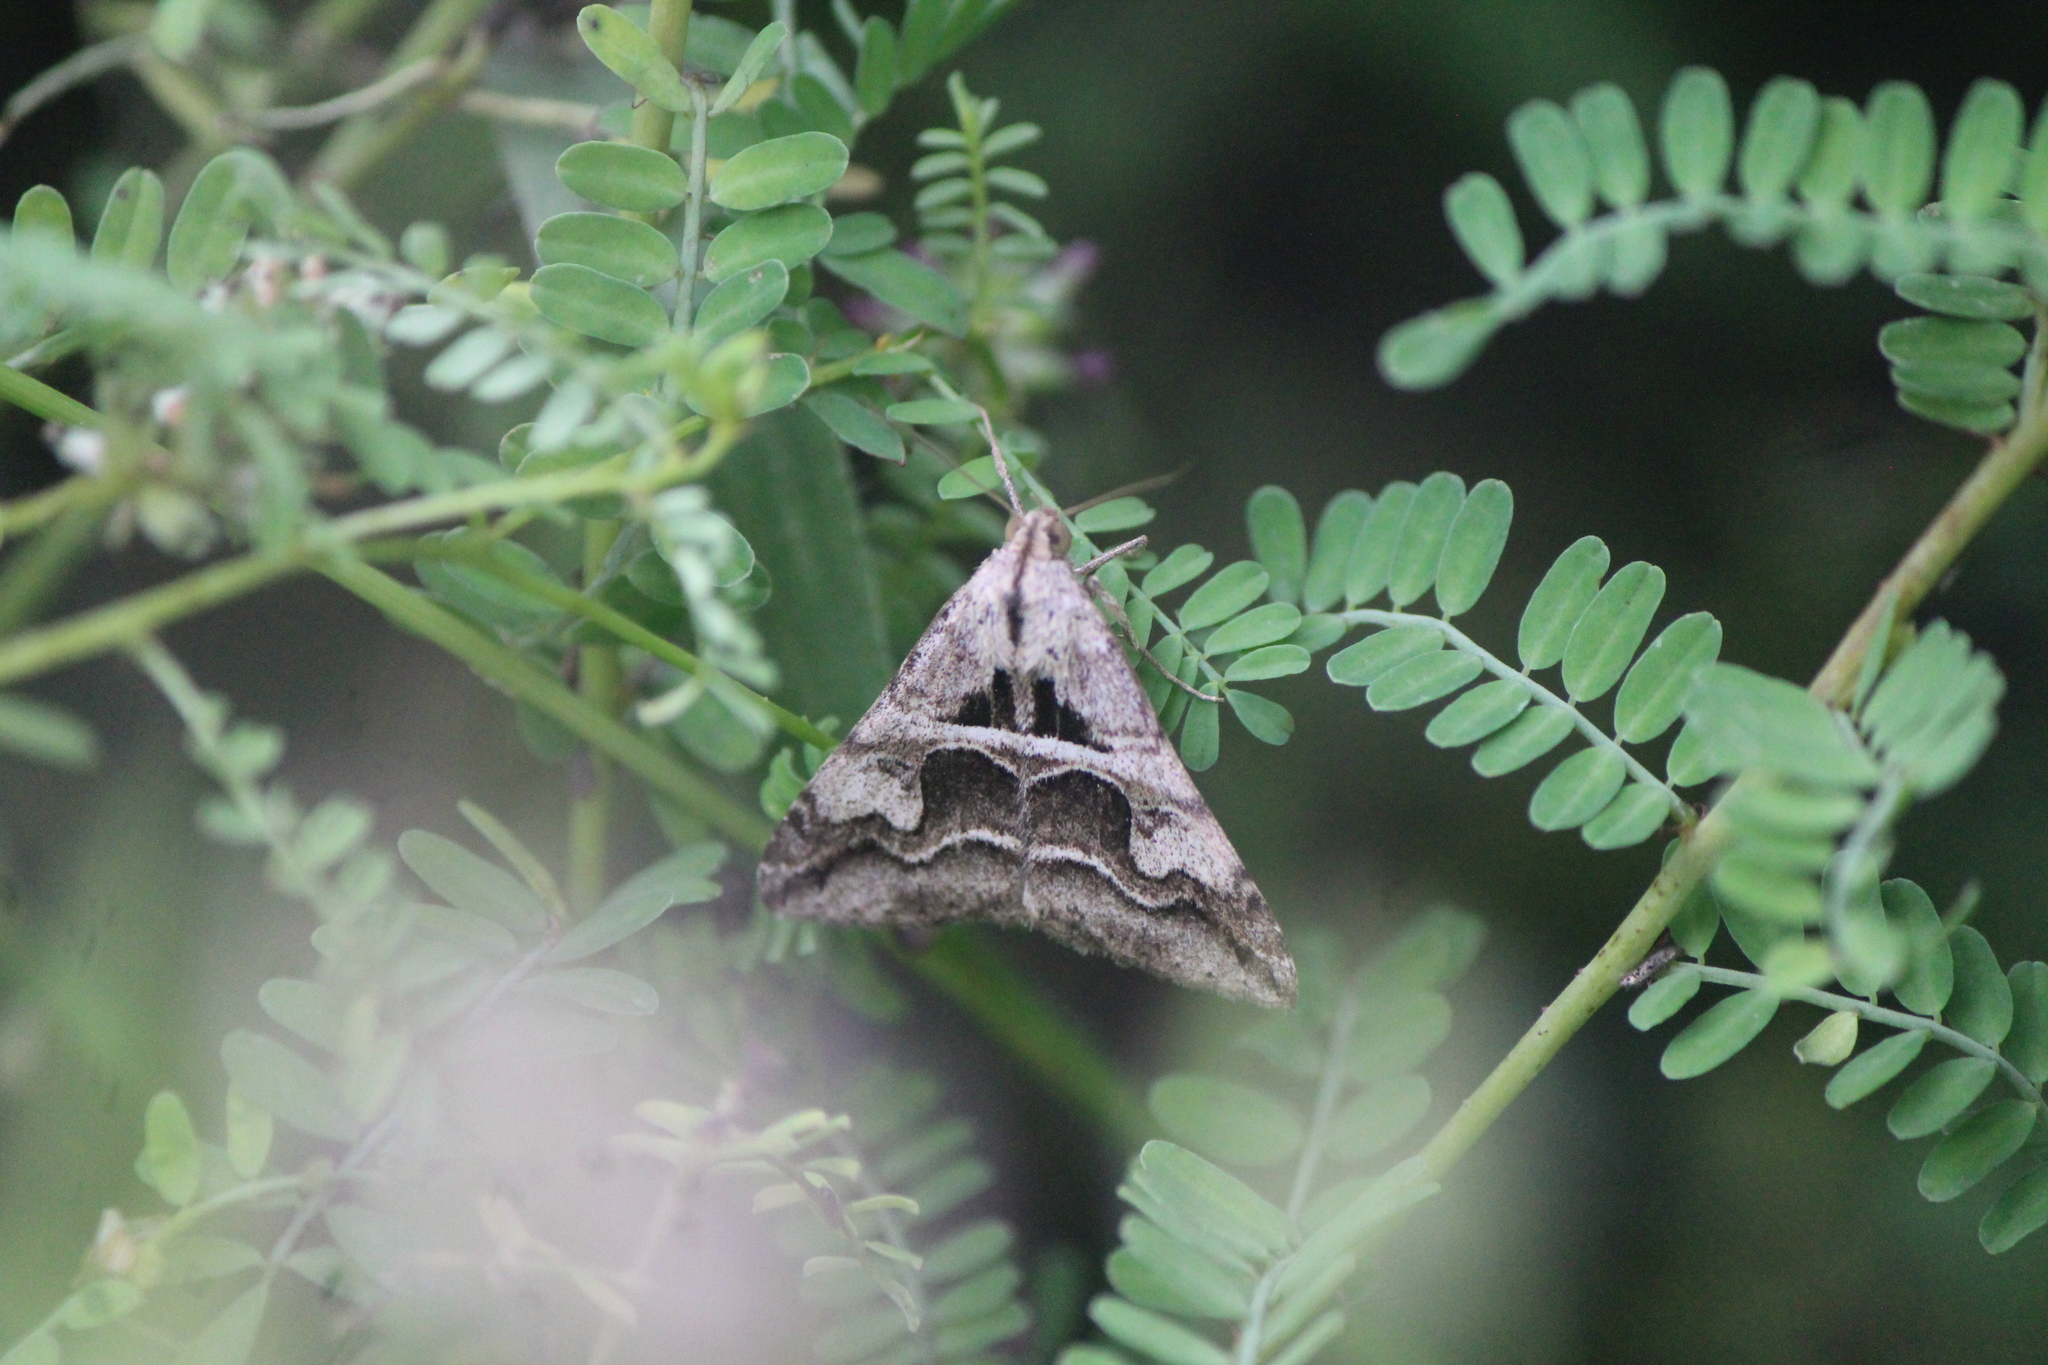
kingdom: Animalia
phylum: Arthropoda
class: Insecta
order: Lepidoptera
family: Erebidae
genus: Melipotis
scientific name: Melipotis cellaris
